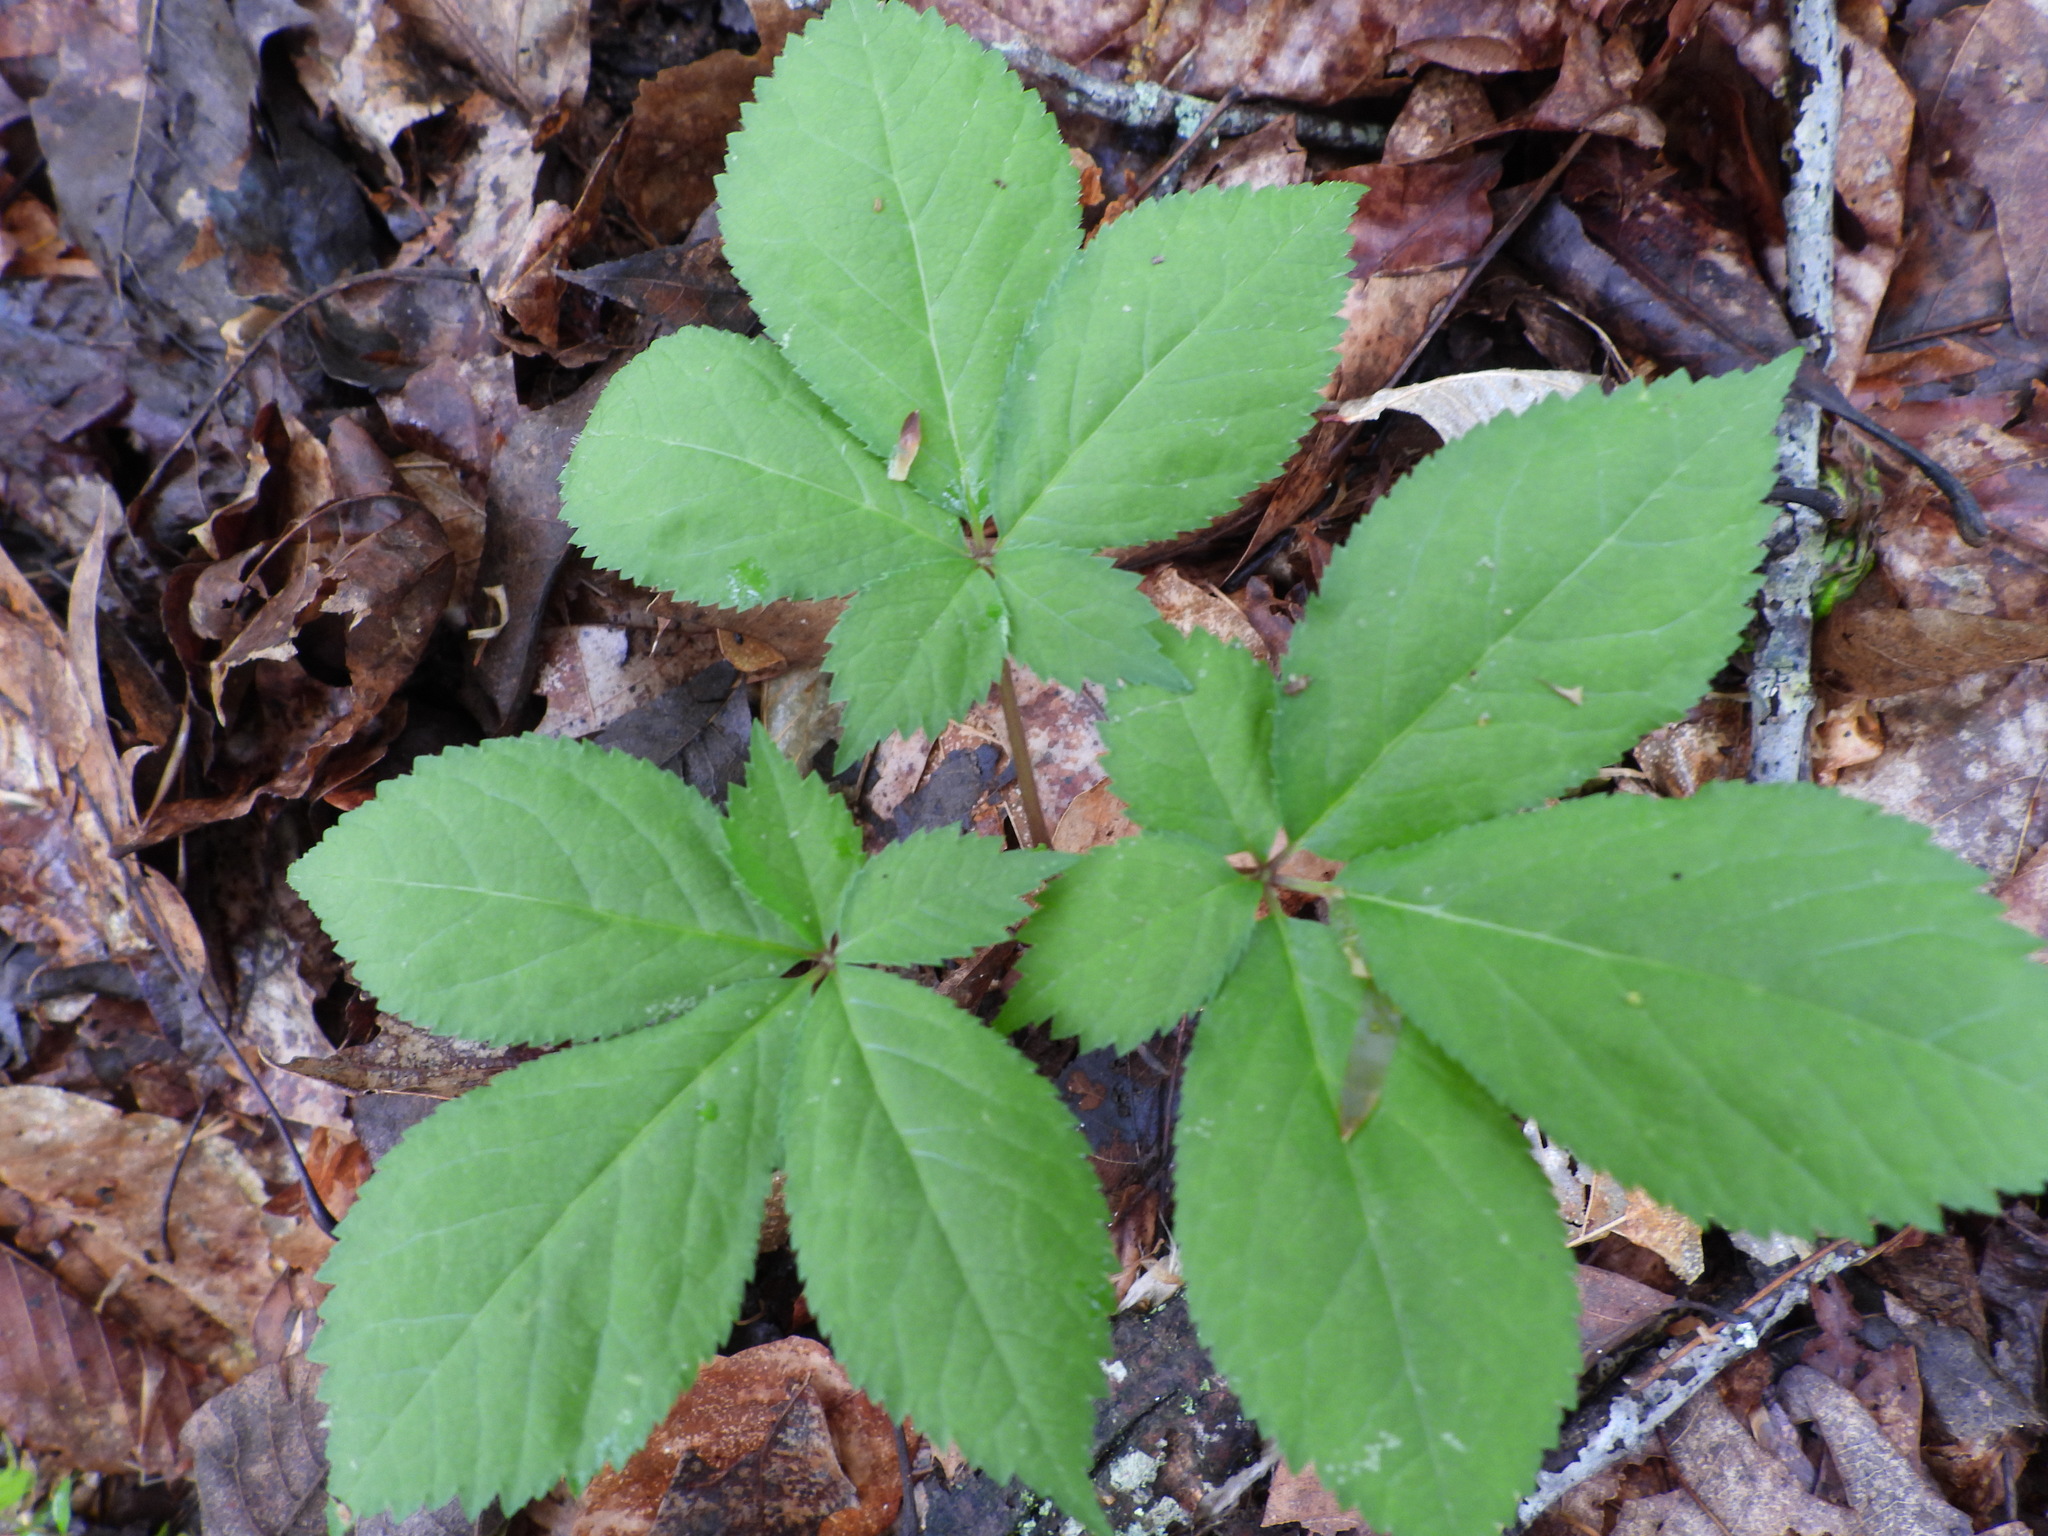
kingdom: Plantae
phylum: Tracheophyta
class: Magnoliopsida
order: Apiales
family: Araliaceae
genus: Panax
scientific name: Panax quinquefolius
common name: American ginseng
